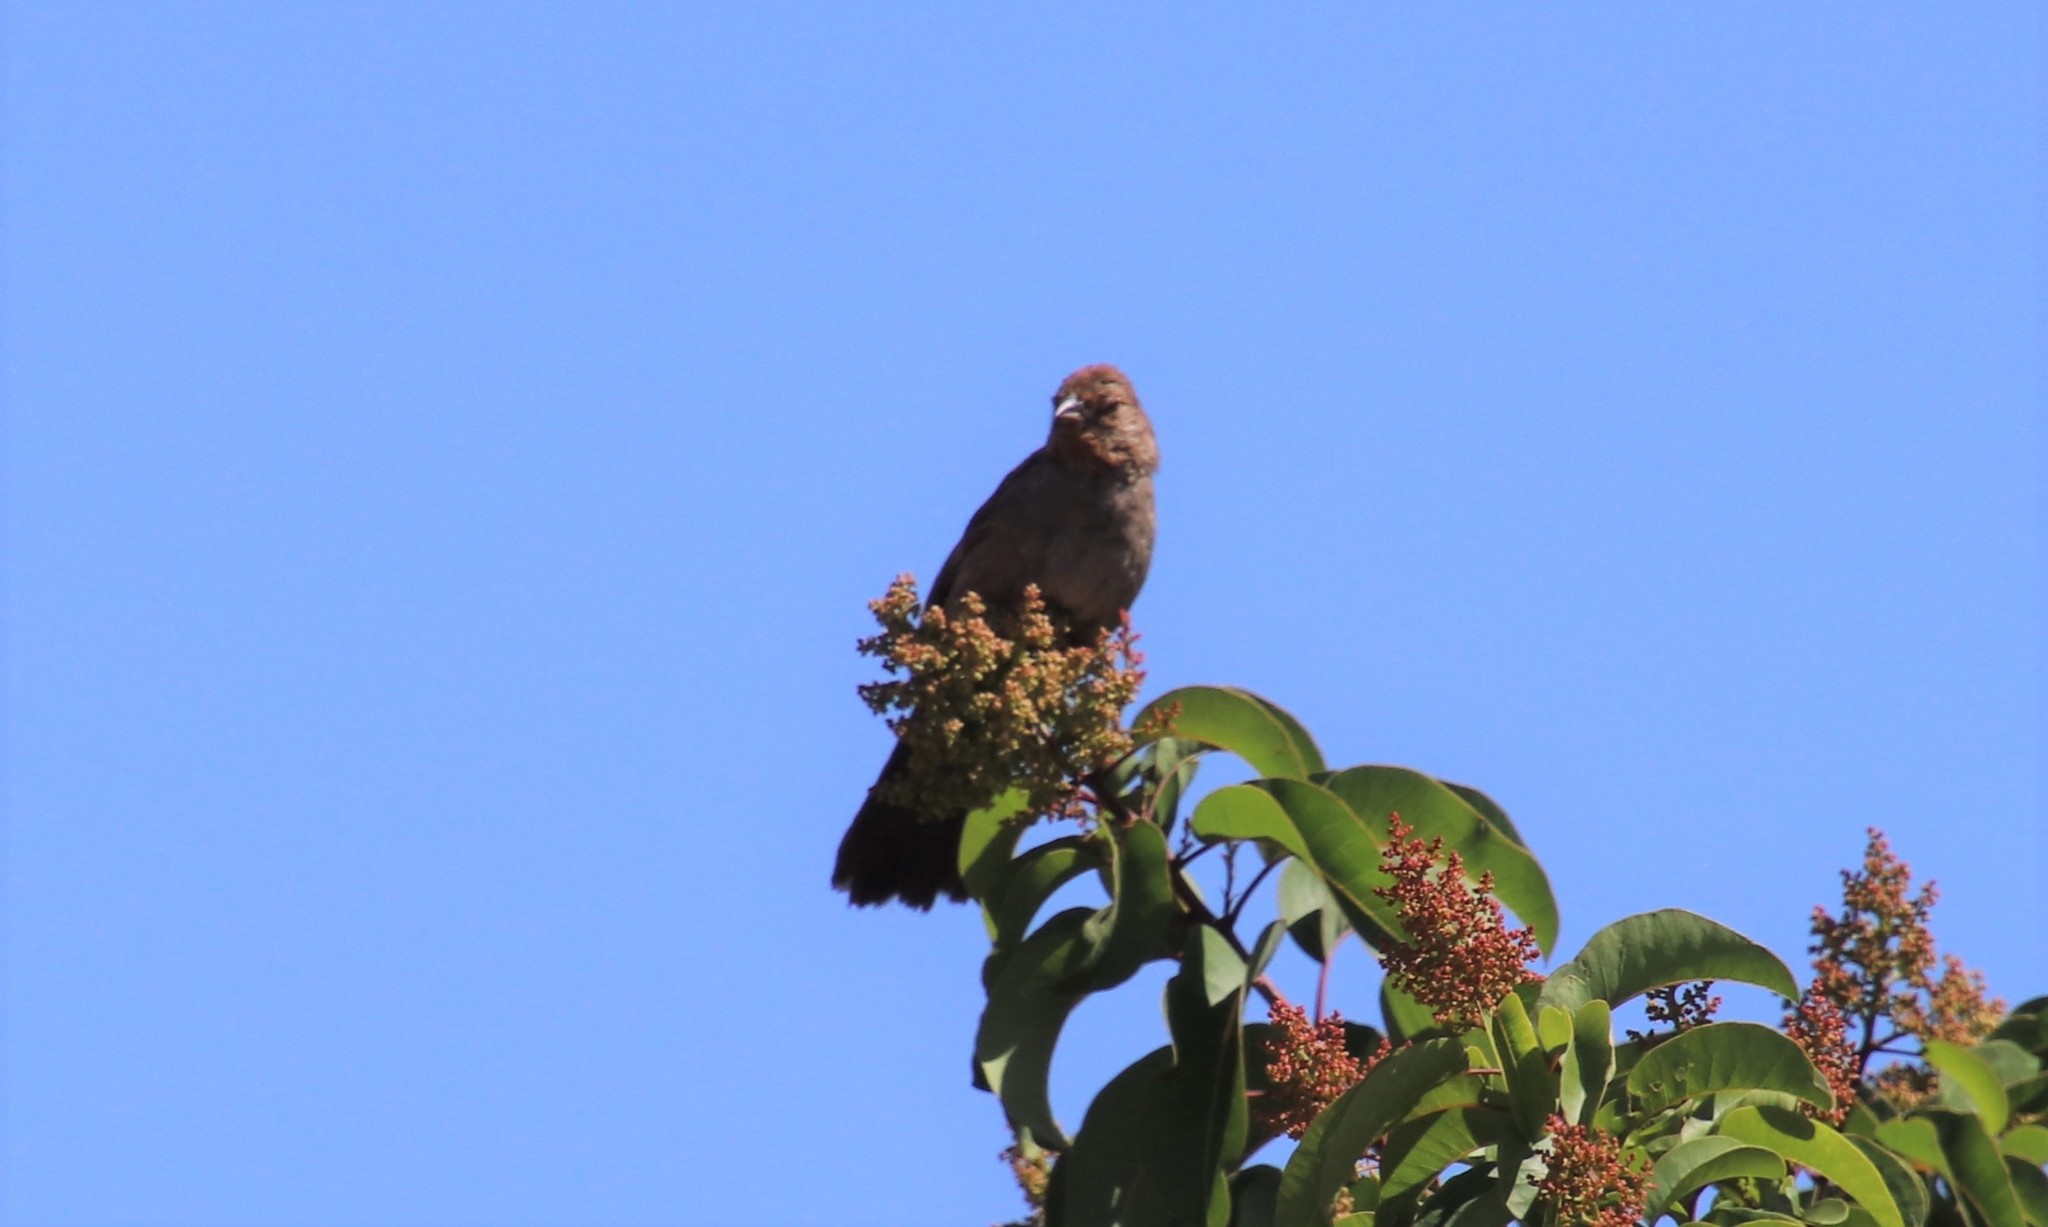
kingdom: Animalia
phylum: Chordata
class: Aves
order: Passeriformes
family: Passerellidae
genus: Melozone
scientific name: Melozone crissalis
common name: California towhee
